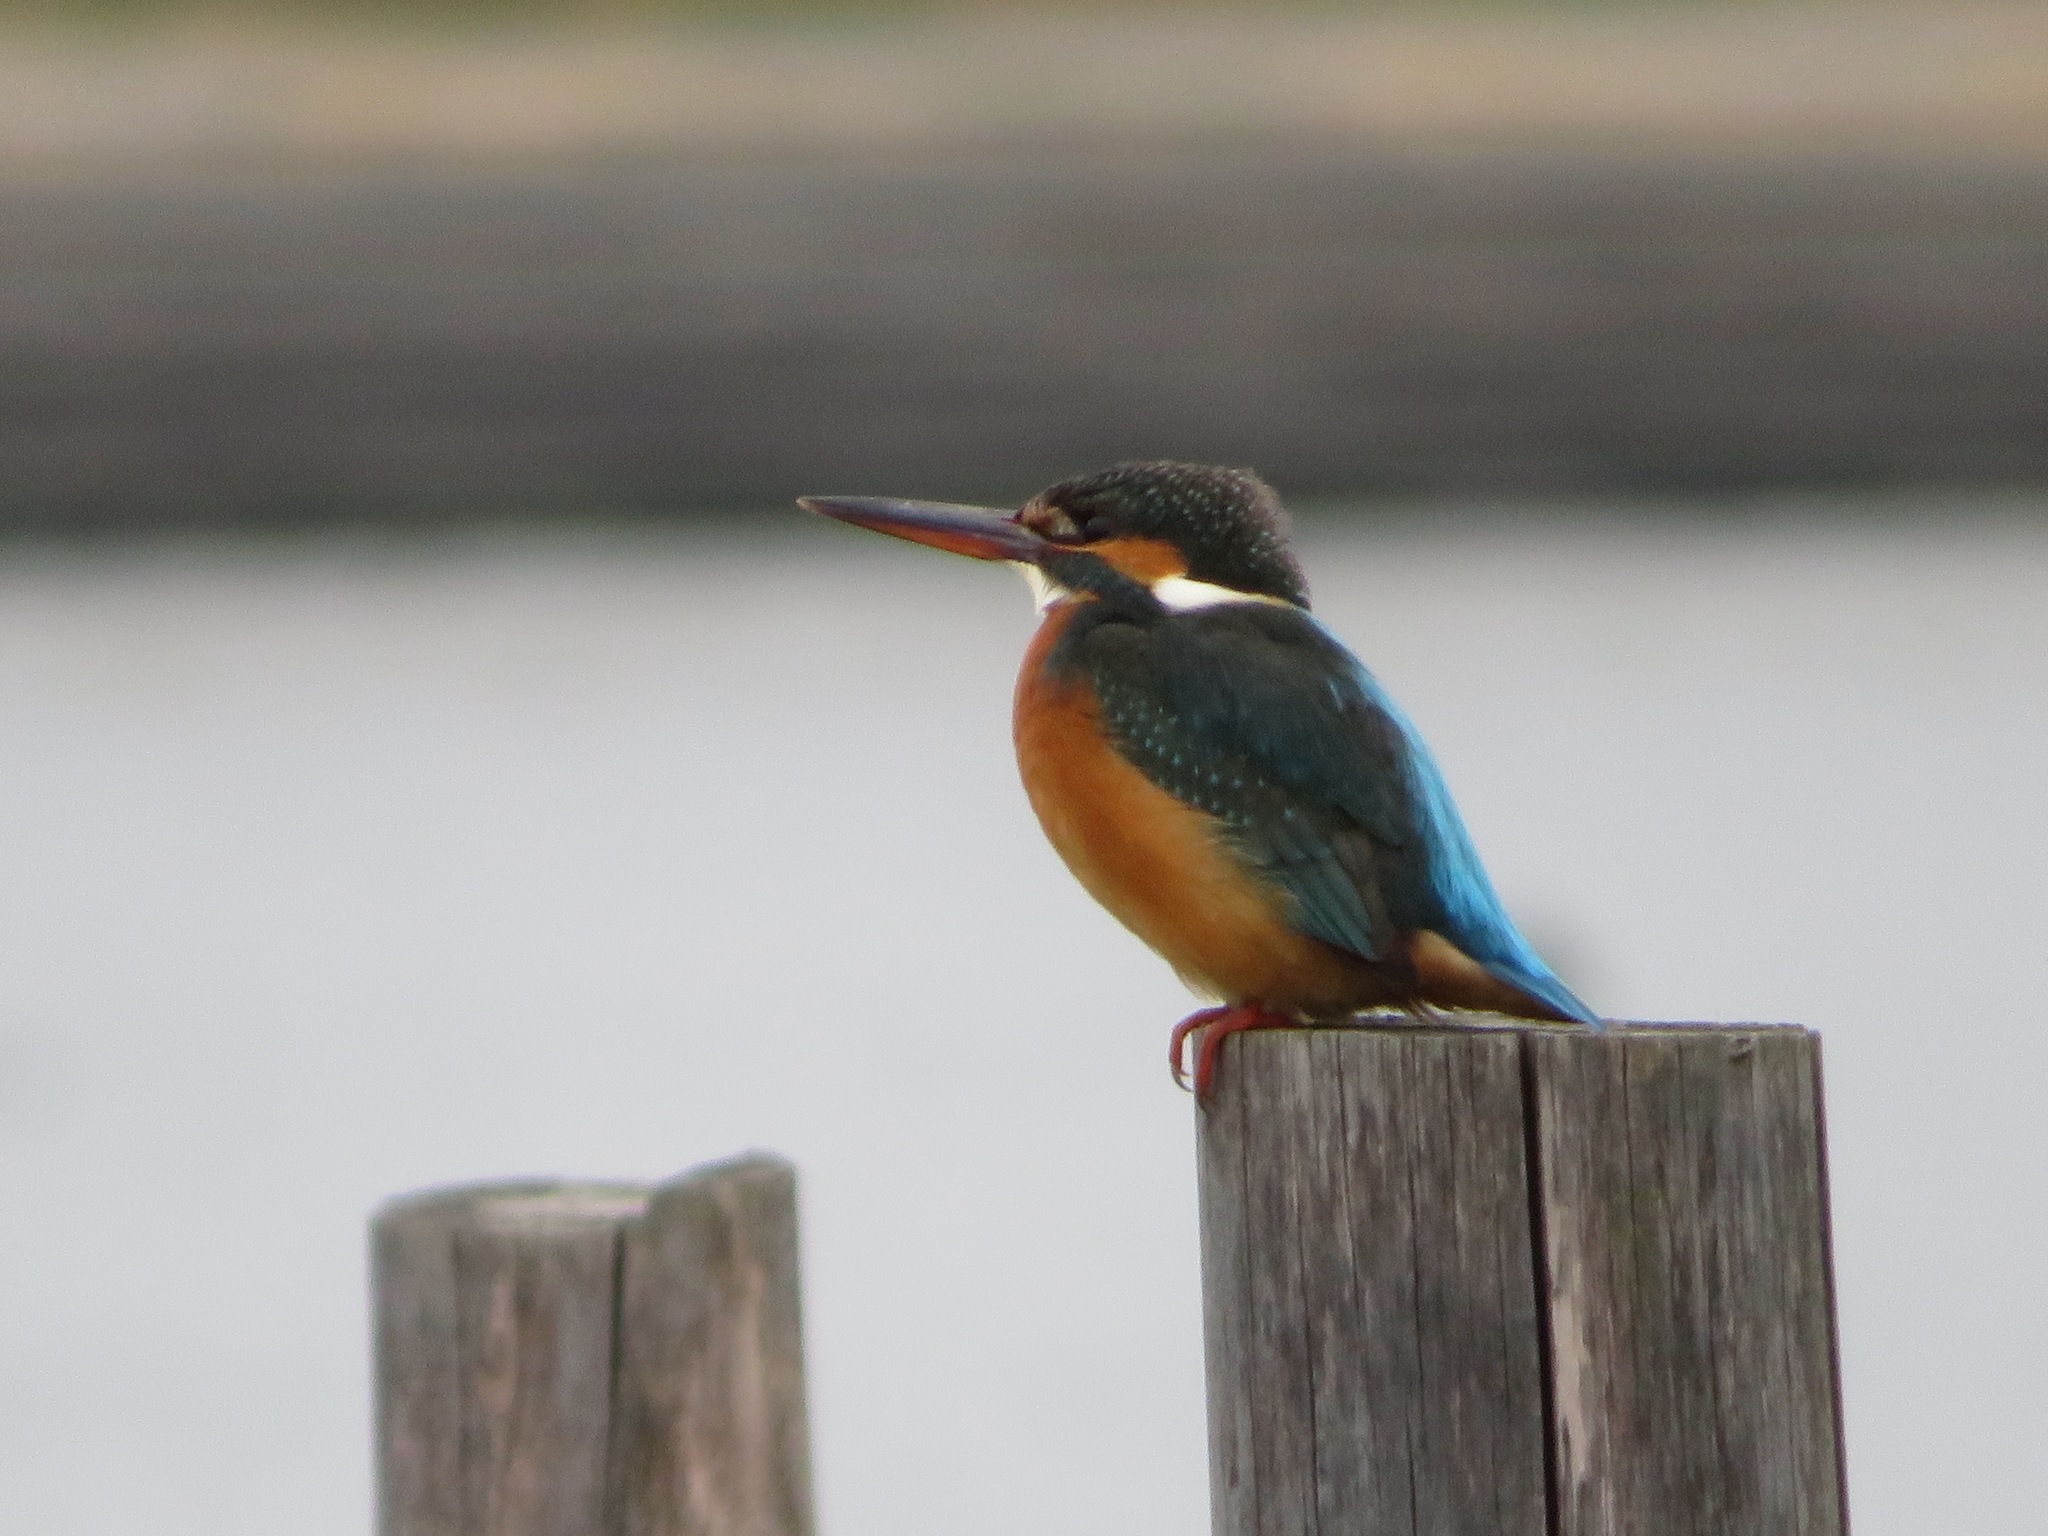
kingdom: Animalia
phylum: Chordata
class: Aves
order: Coraciiformes
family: Alcedinidae
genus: Alcedo
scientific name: Alcedo atthis
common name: Common kingfisher
